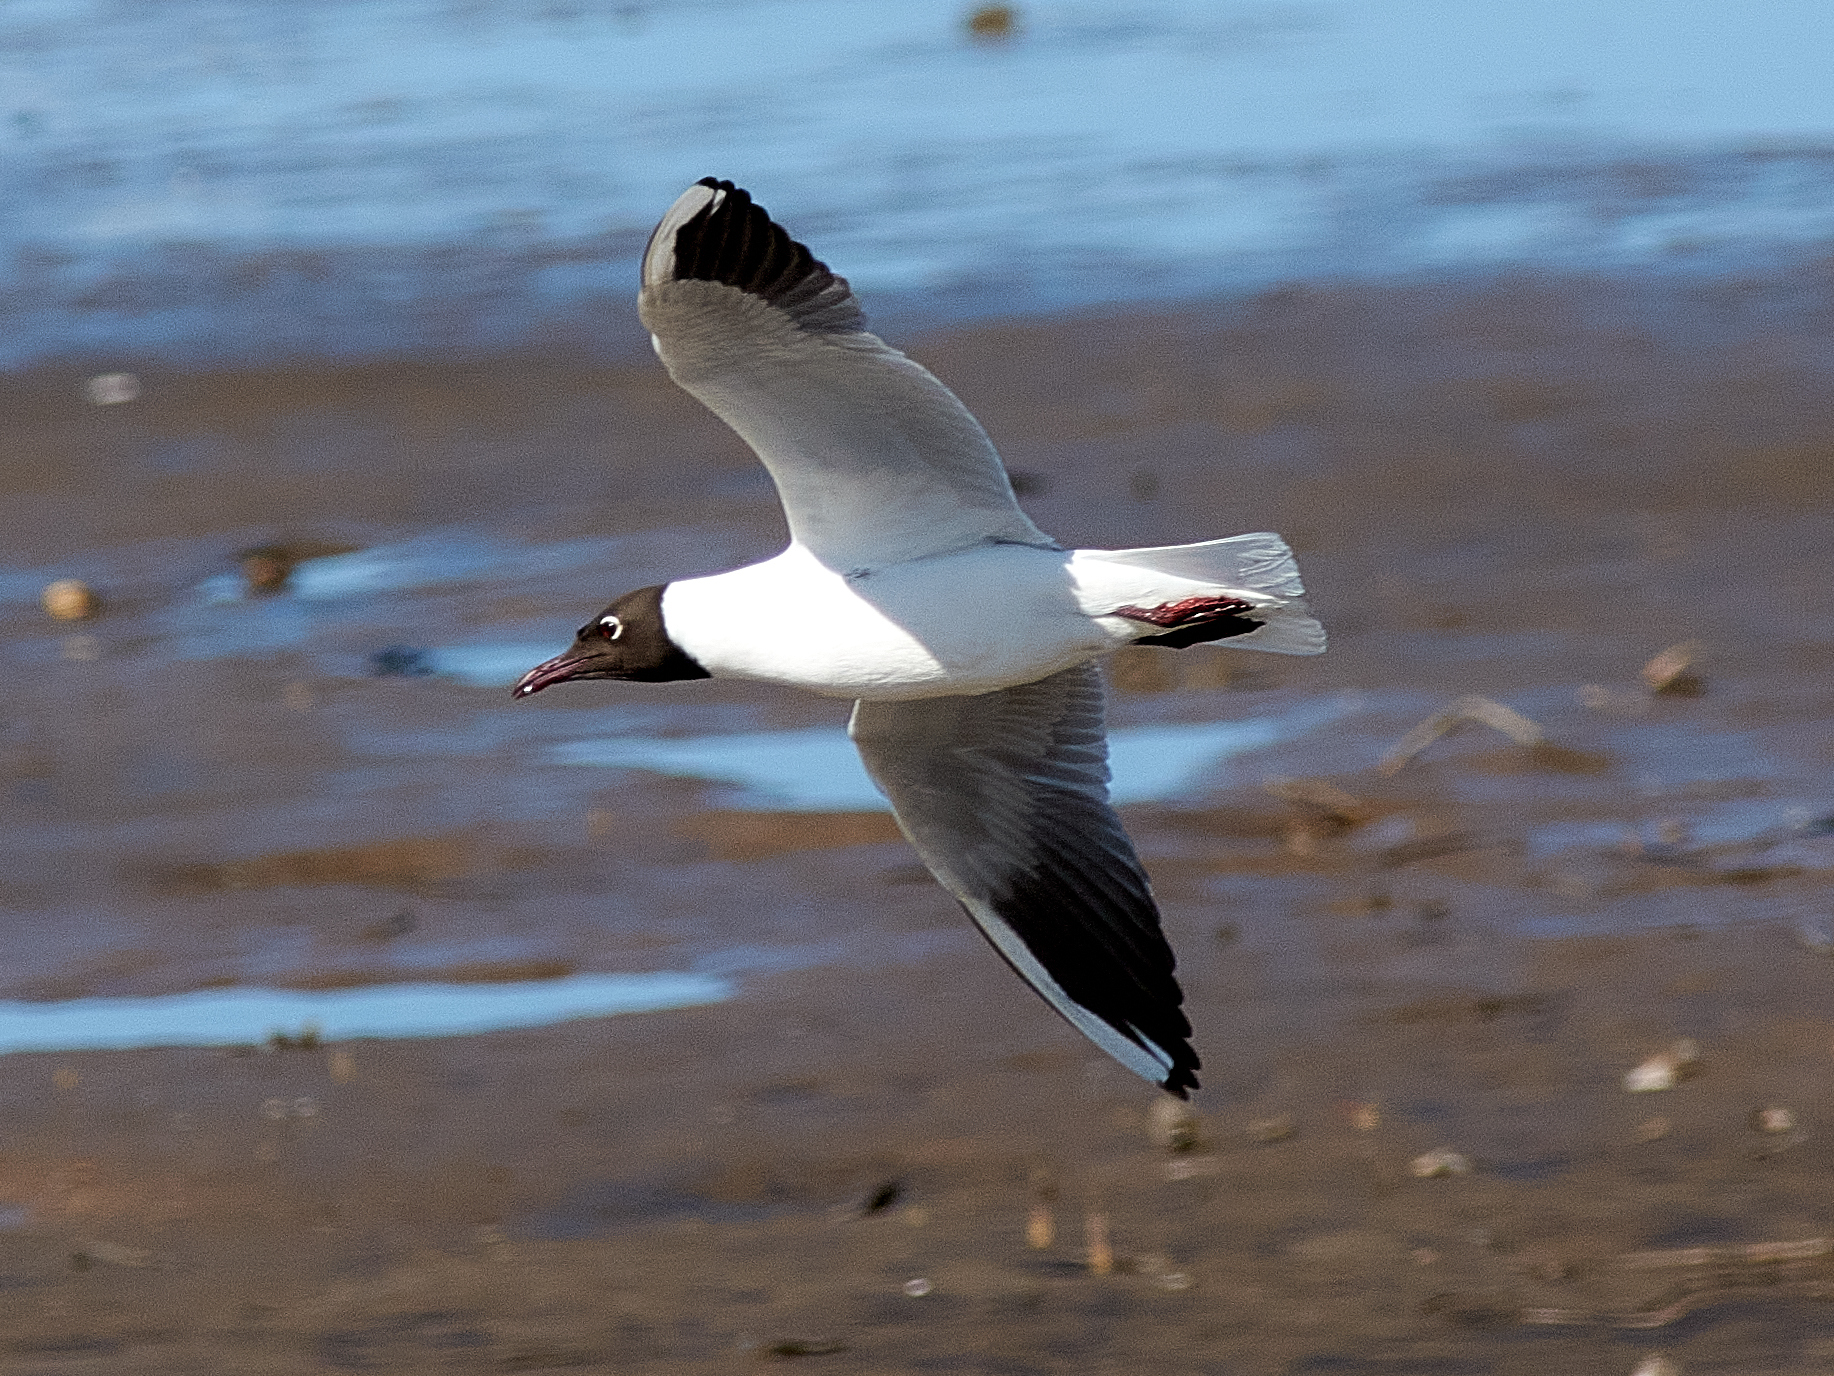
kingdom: Animalia
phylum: Chordata
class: Aves
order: Charadriiformes
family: Laridae
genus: Chroicocephalus
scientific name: Chroicocephalus ridibundus
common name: Black-headed gull
